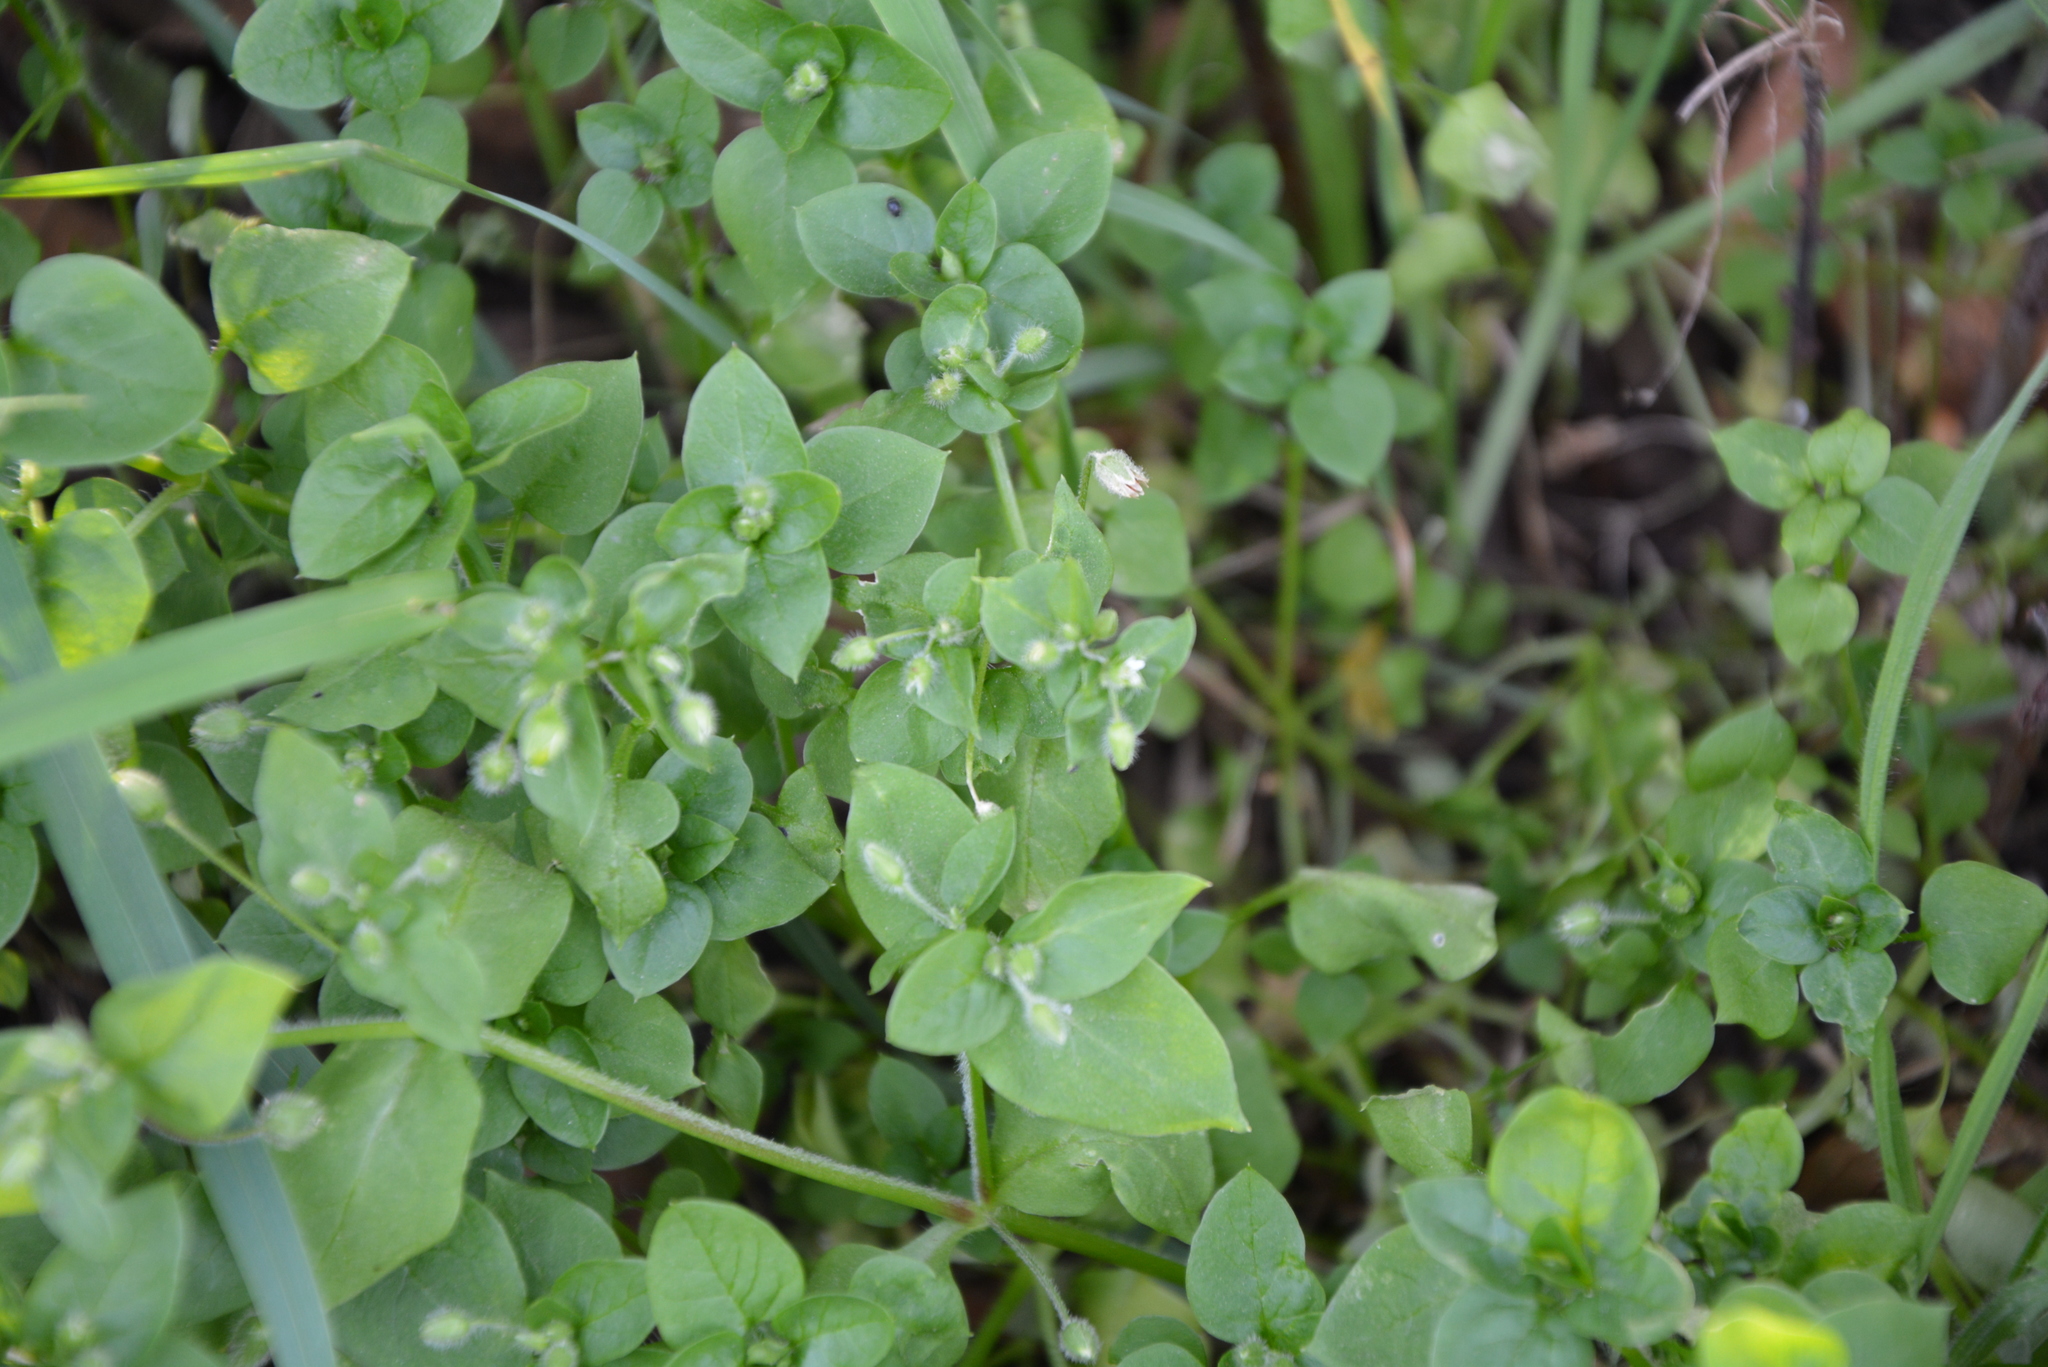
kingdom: Plantae
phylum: Tracheophyta
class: Magnoliopsida
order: Caryophyllales
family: Caryophyllaceae
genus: Stellaria
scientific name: Stellaria media
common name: Common chickweed
